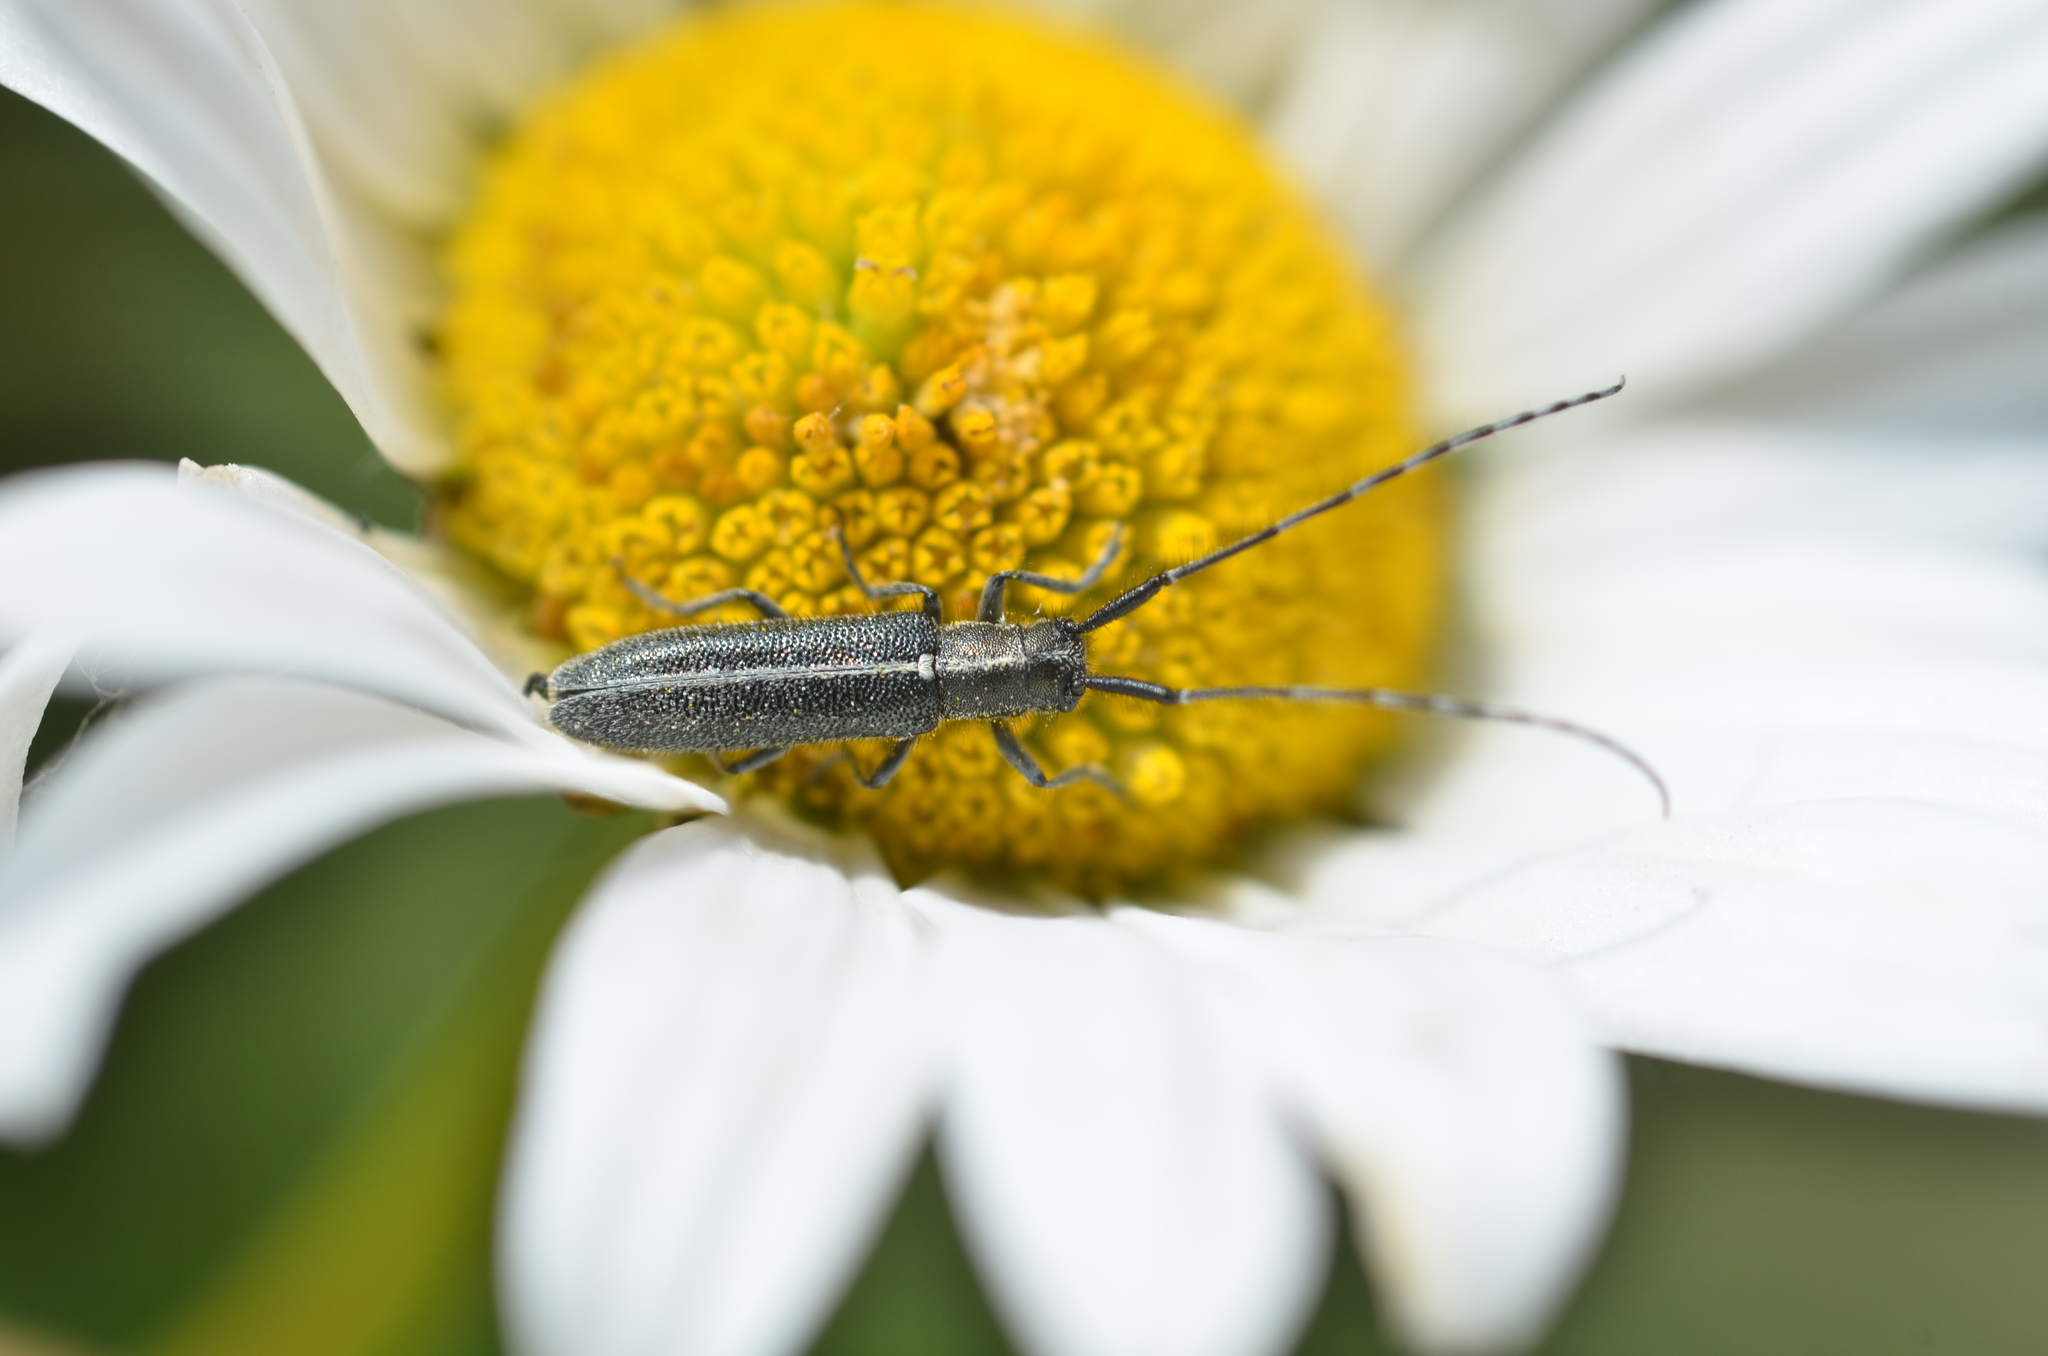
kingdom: Animalia
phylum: Arthropoda
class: Insecta
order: Coleoptera
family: Cerambycidae
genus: Agapanthia
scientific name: Agapanthia cardui
